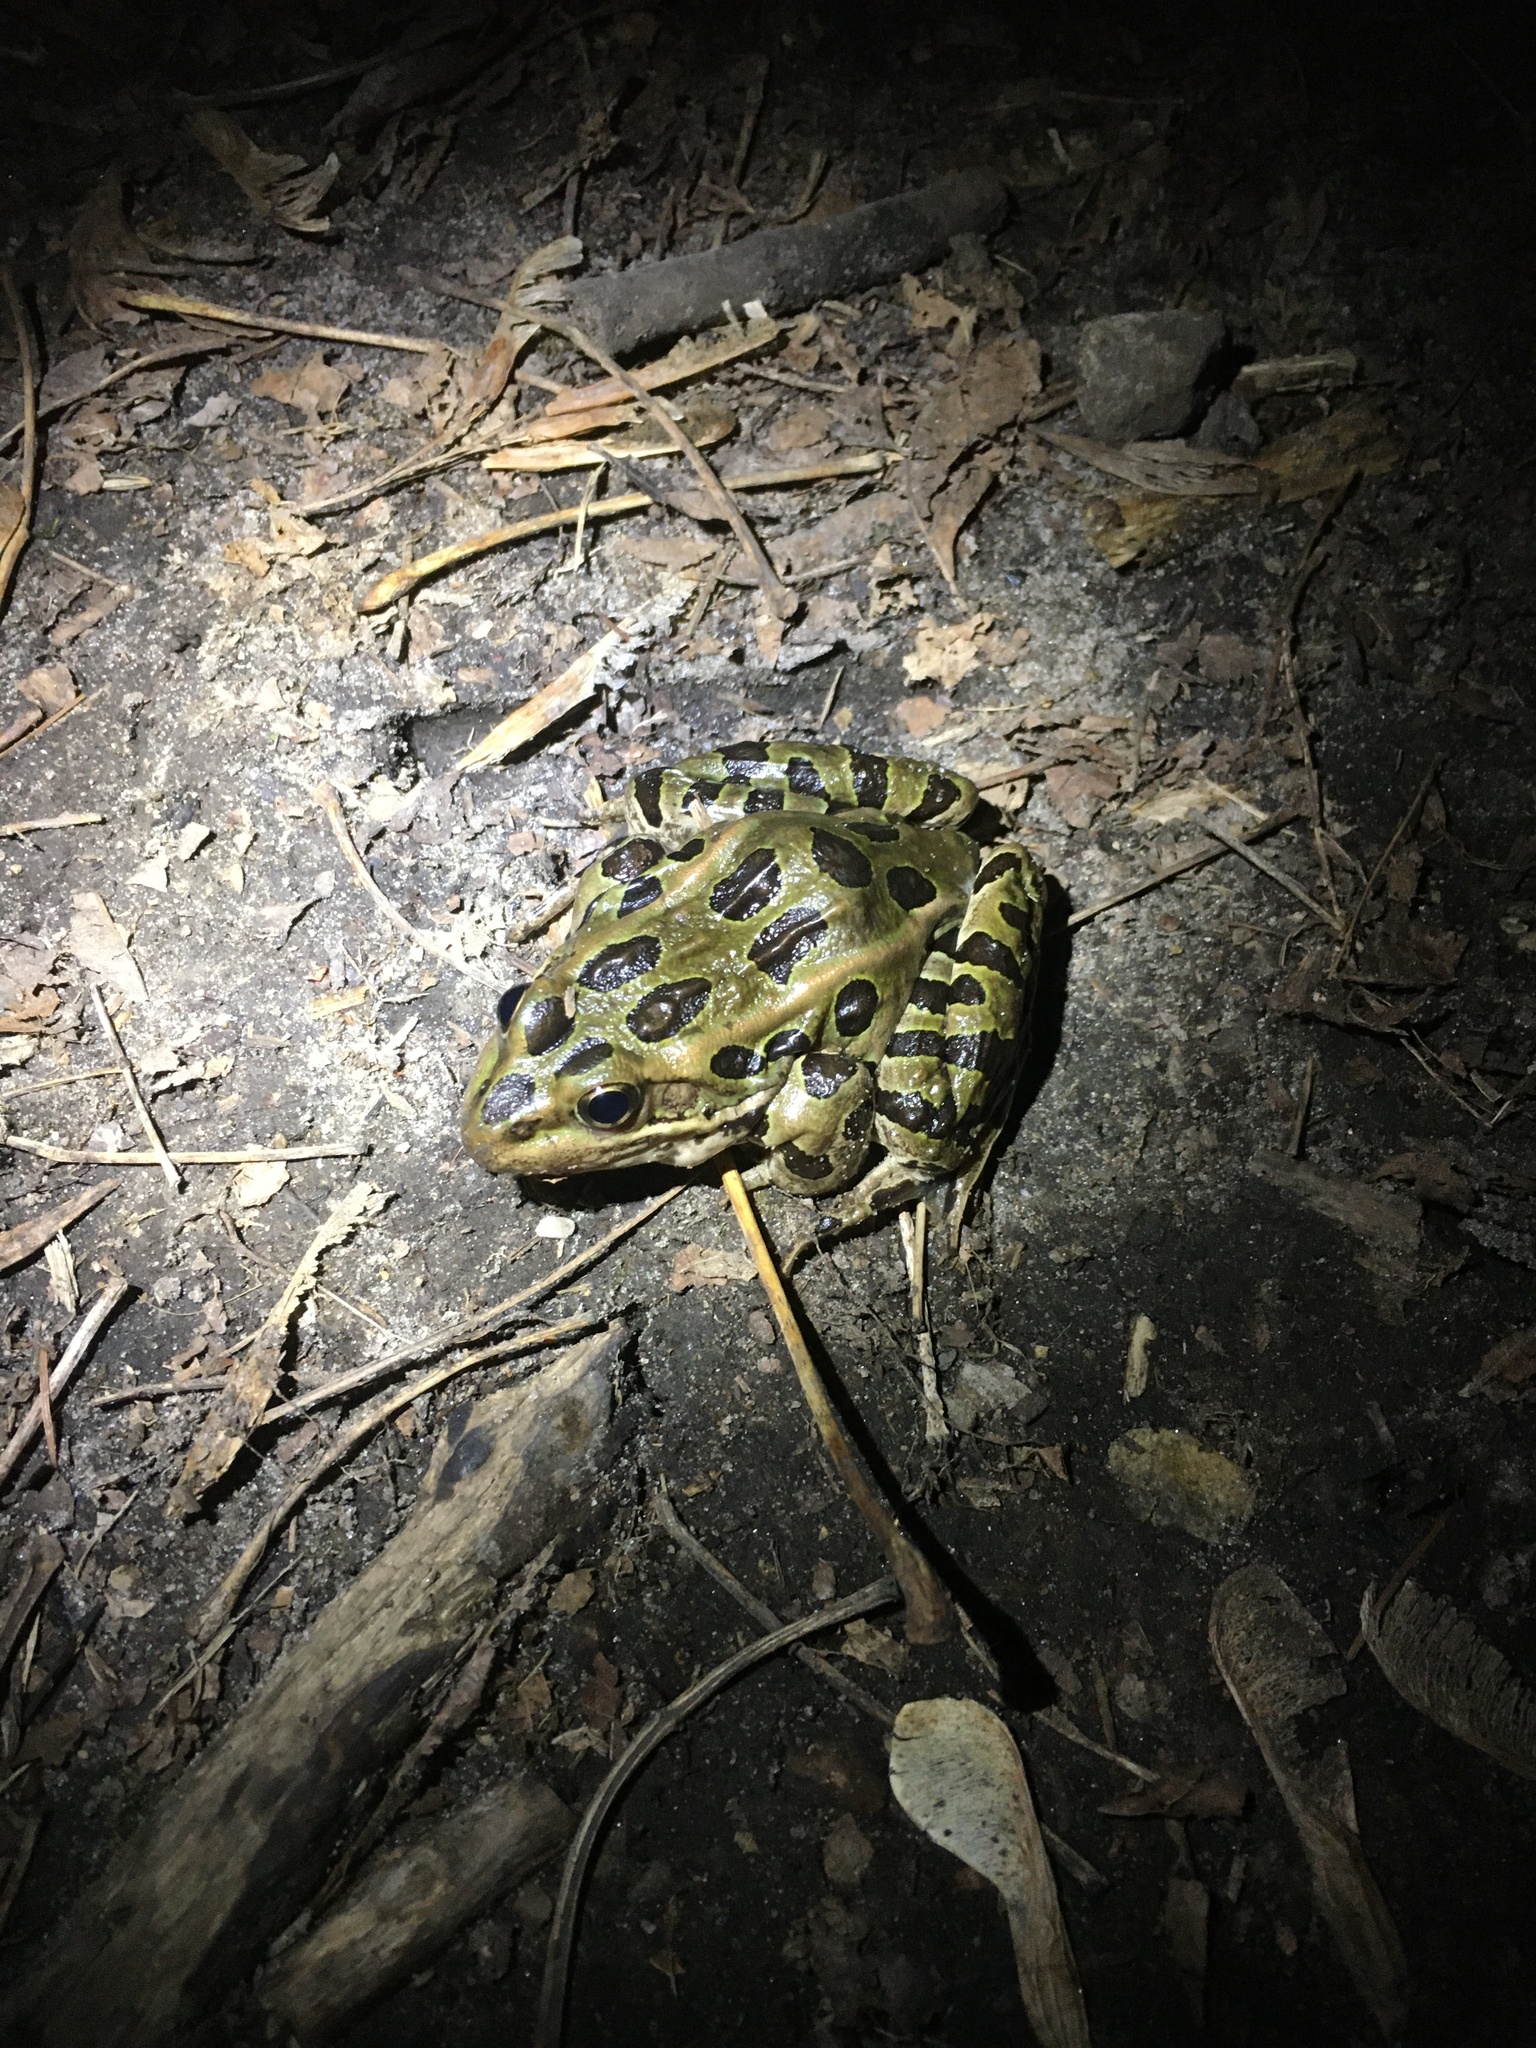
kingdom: Animalia
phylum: Chordata
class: Amphibia
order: Anura
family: Ranidae
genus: Lithobates
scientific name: Lithobates pipiens
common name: Northern leopard frog
